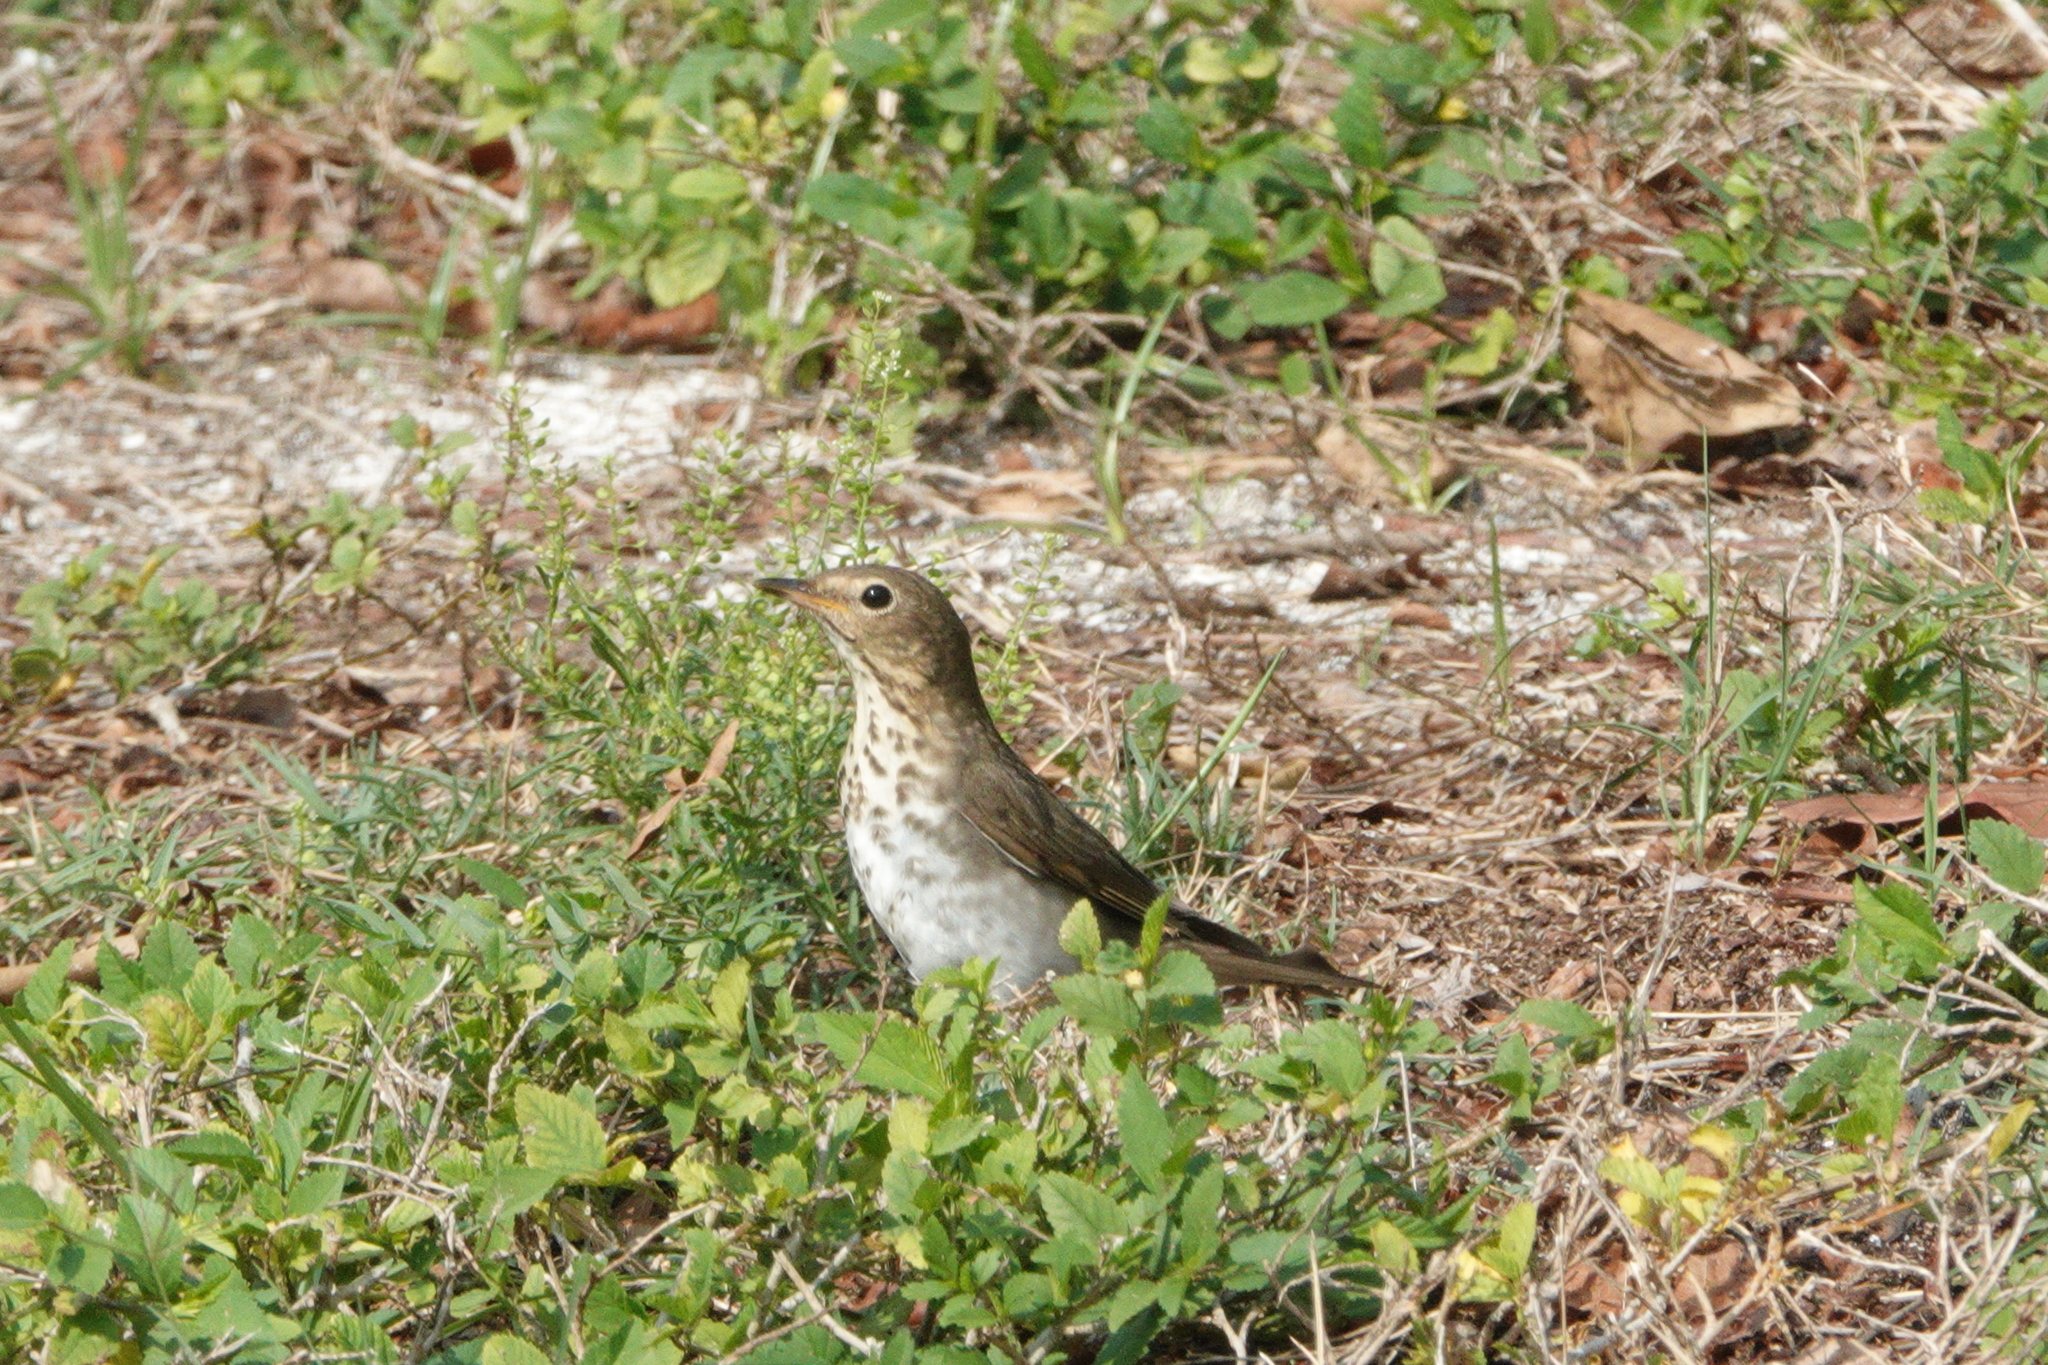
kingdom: Animalia
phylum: Chordata
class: Aves
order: Passeriformes
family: Turdidae
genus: Catharus
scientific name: Catharus ustulatus
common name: Swainson's thrush
